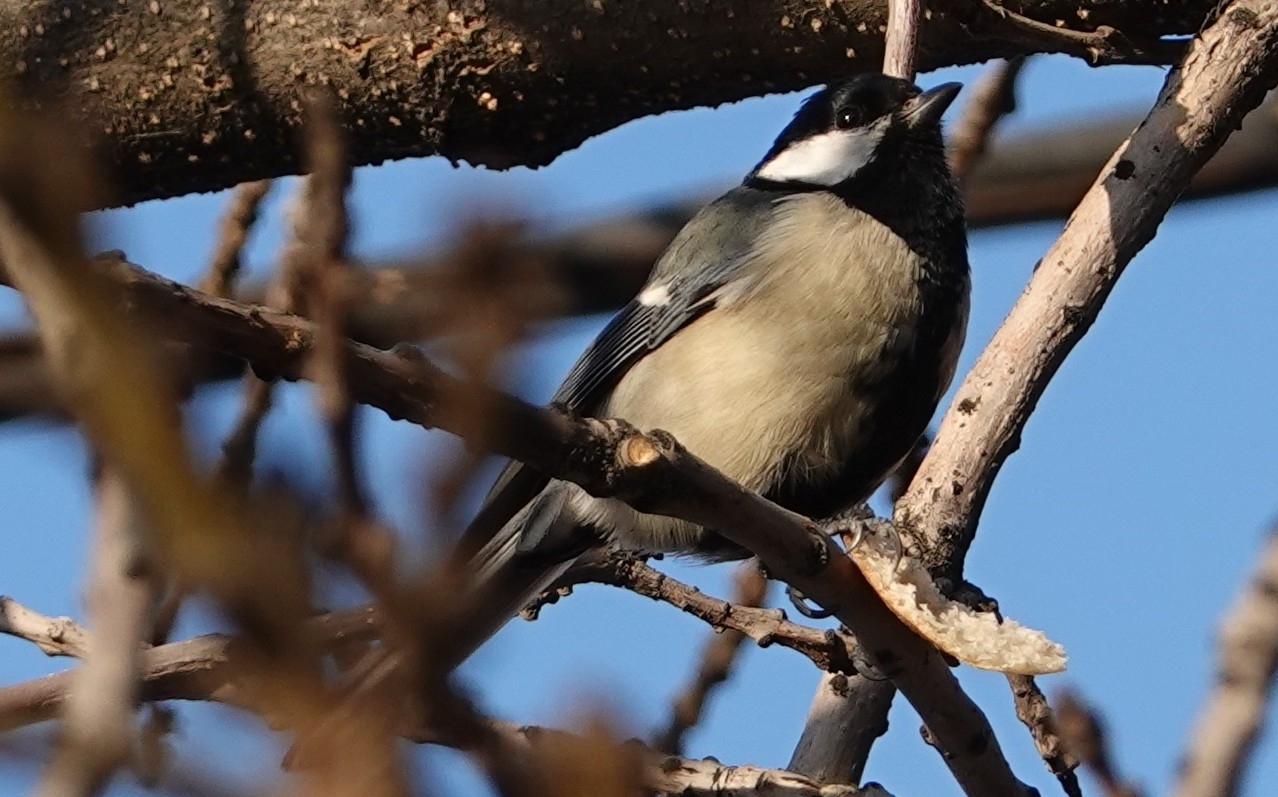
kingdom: Animalia
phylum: Chordata
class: Aves
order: Passeriformes
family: Paridae
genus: Parus
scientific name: Parus major
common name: Great tit
